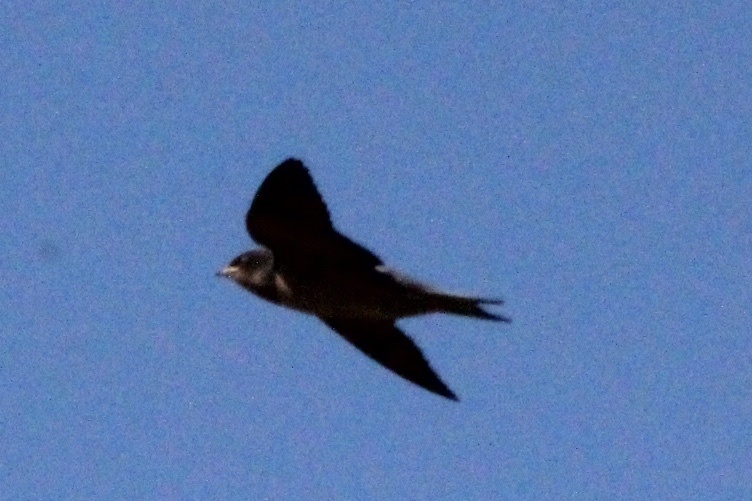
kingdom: Animalia
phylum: Chordata
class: Aves
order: Passeriformes
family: Hirundinidae
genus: Hirundo
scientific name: Hirundo rustica
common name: Barn swallow
